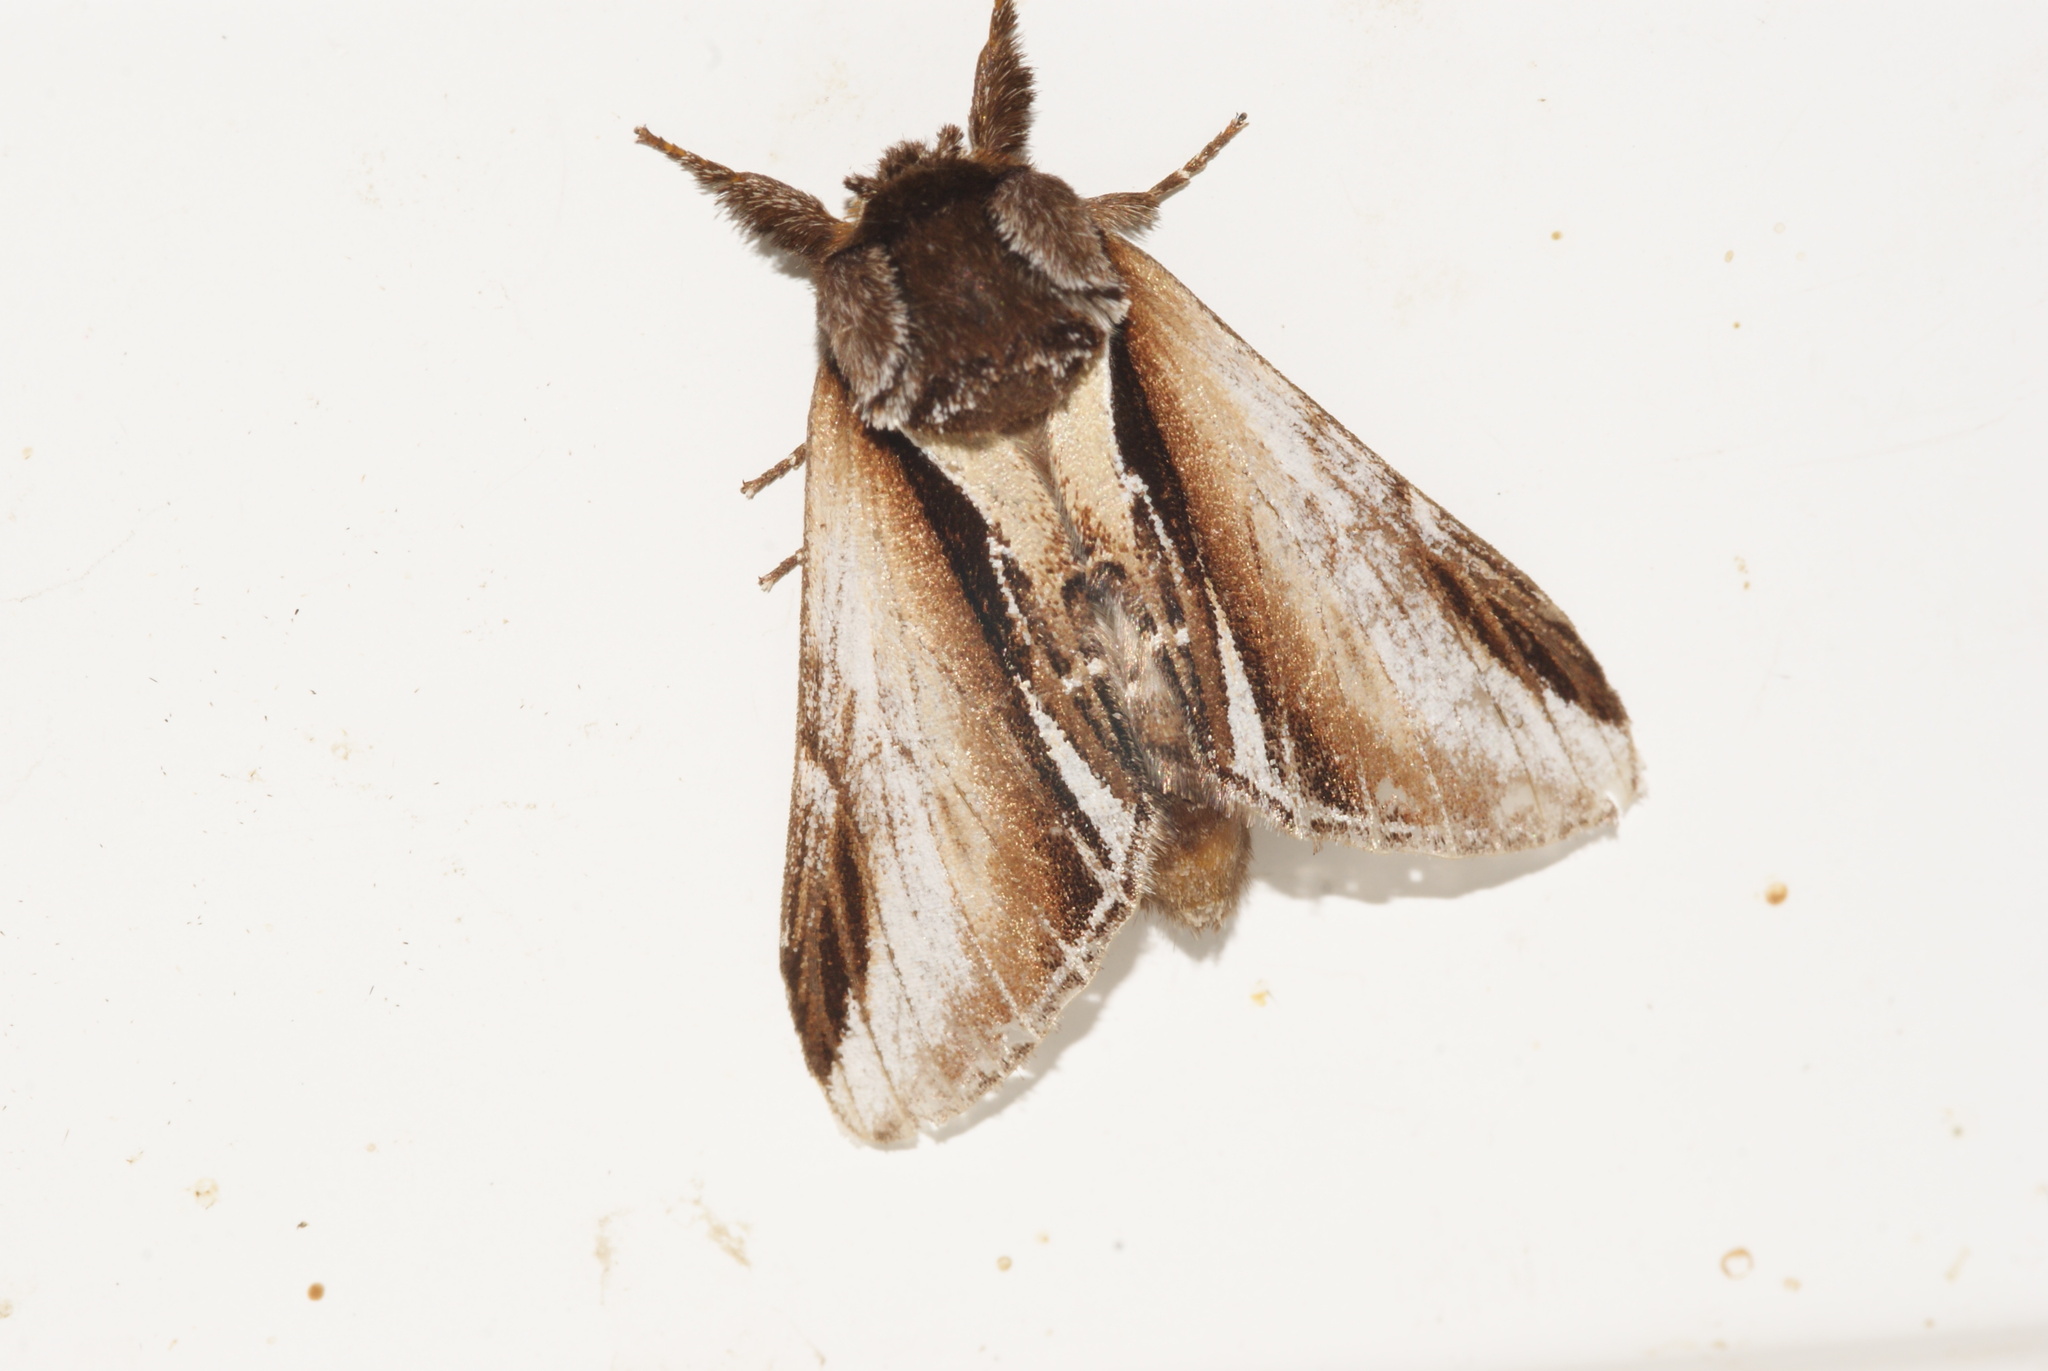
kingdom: Animalia
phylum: Arthropoda
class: Insecta
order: Lepidoptera
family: Notodontidae
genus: Pheosia
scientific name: Pheosia gnoma
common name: Lesser swallow prominent
